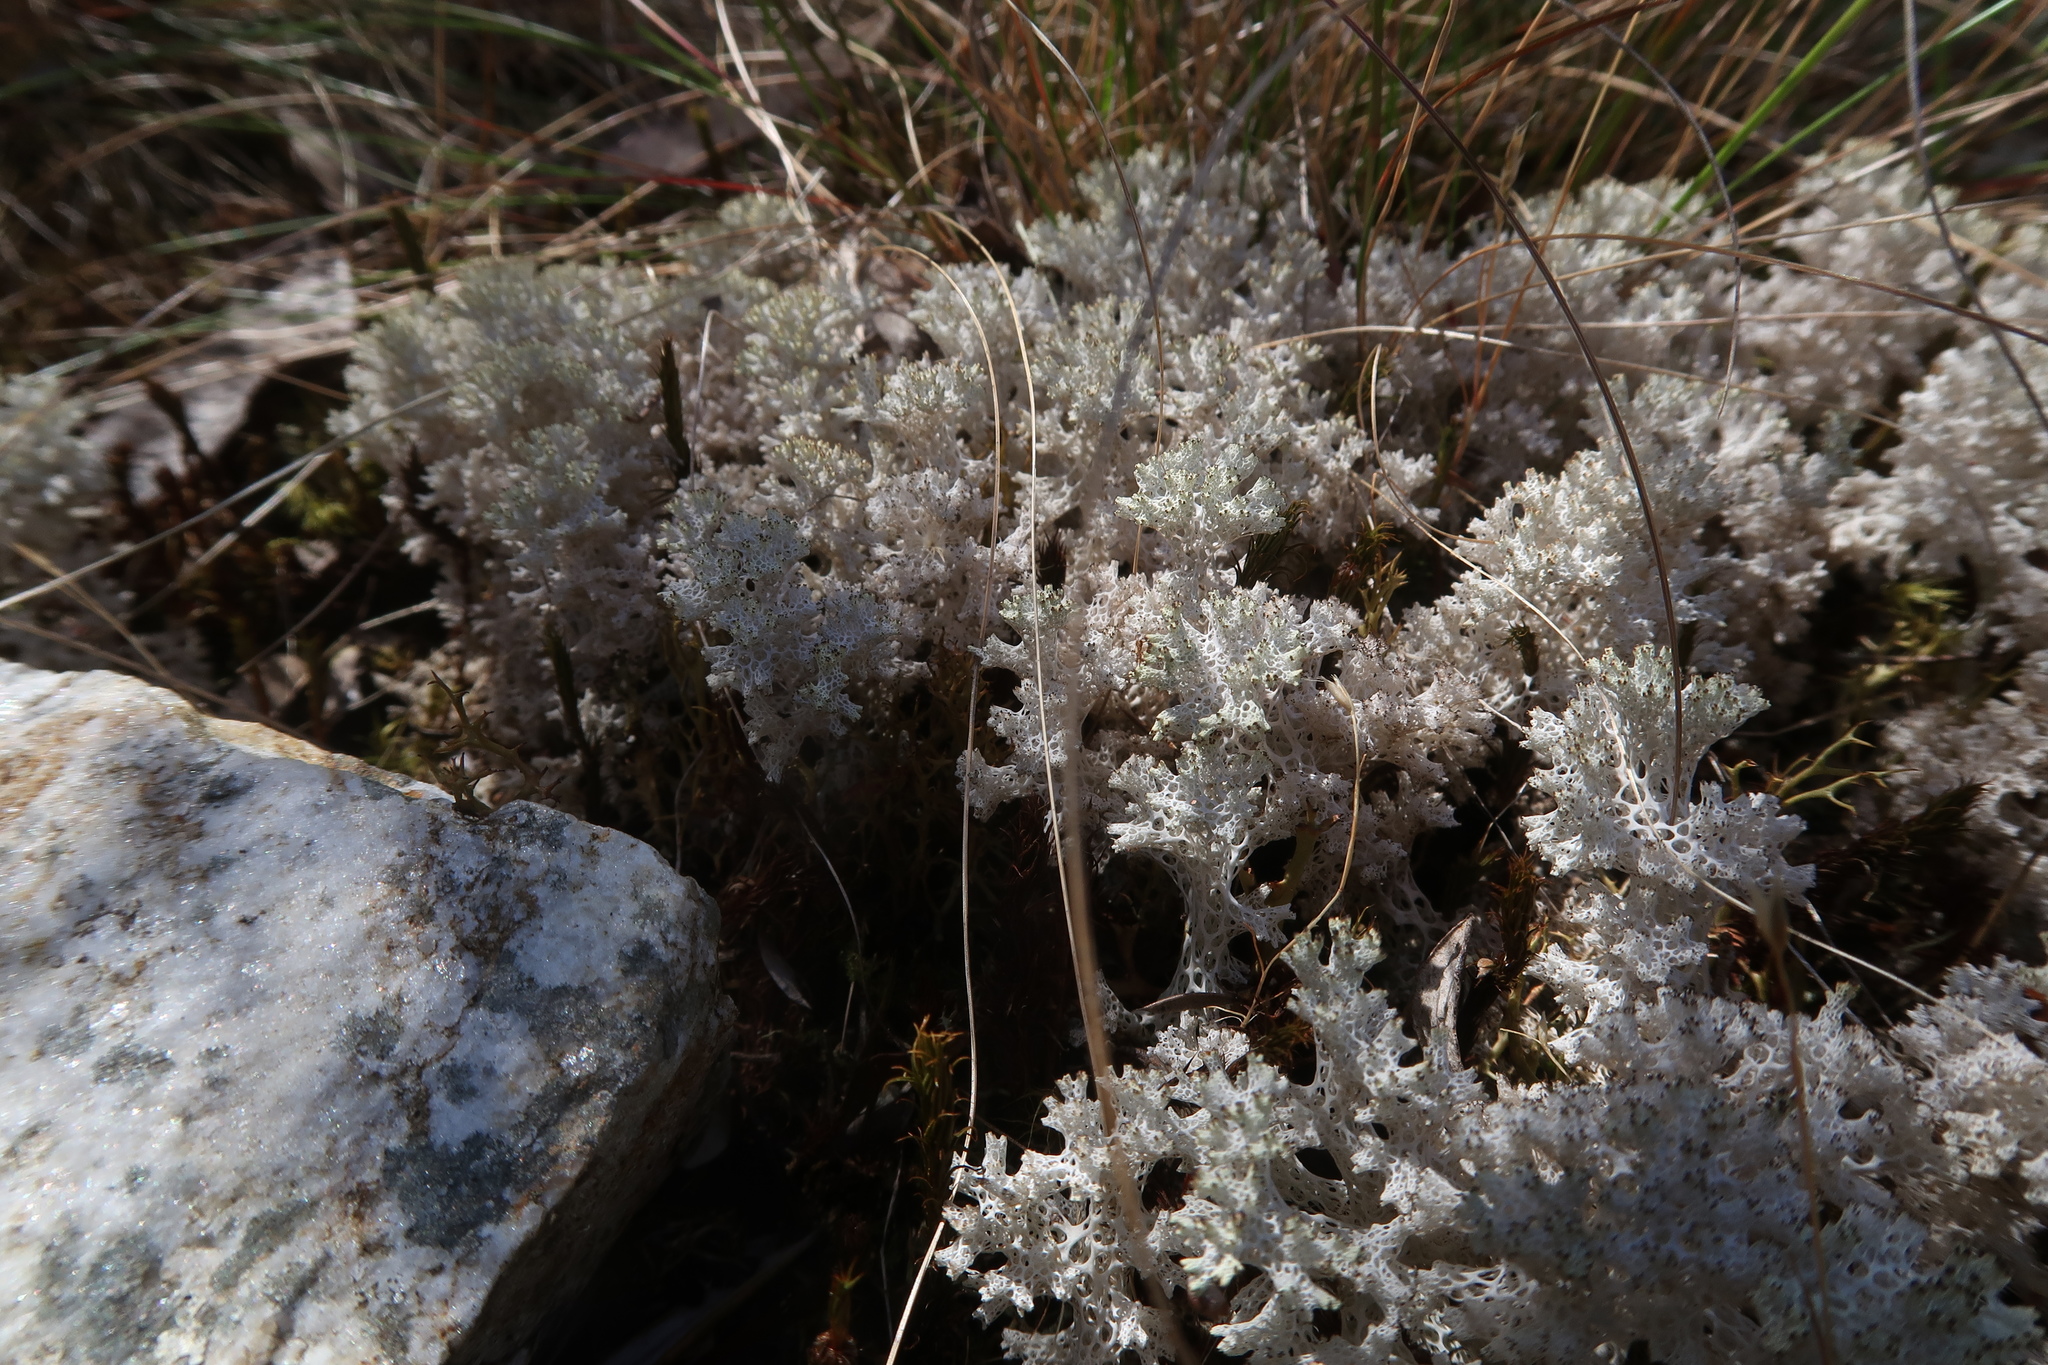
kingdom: Fungi
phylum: Ascomycota
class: Lecanoromycetes
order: Lecanorales
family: Cladoniaceae
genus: Pulchrocladia
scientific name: Pulchrocladia retipora
